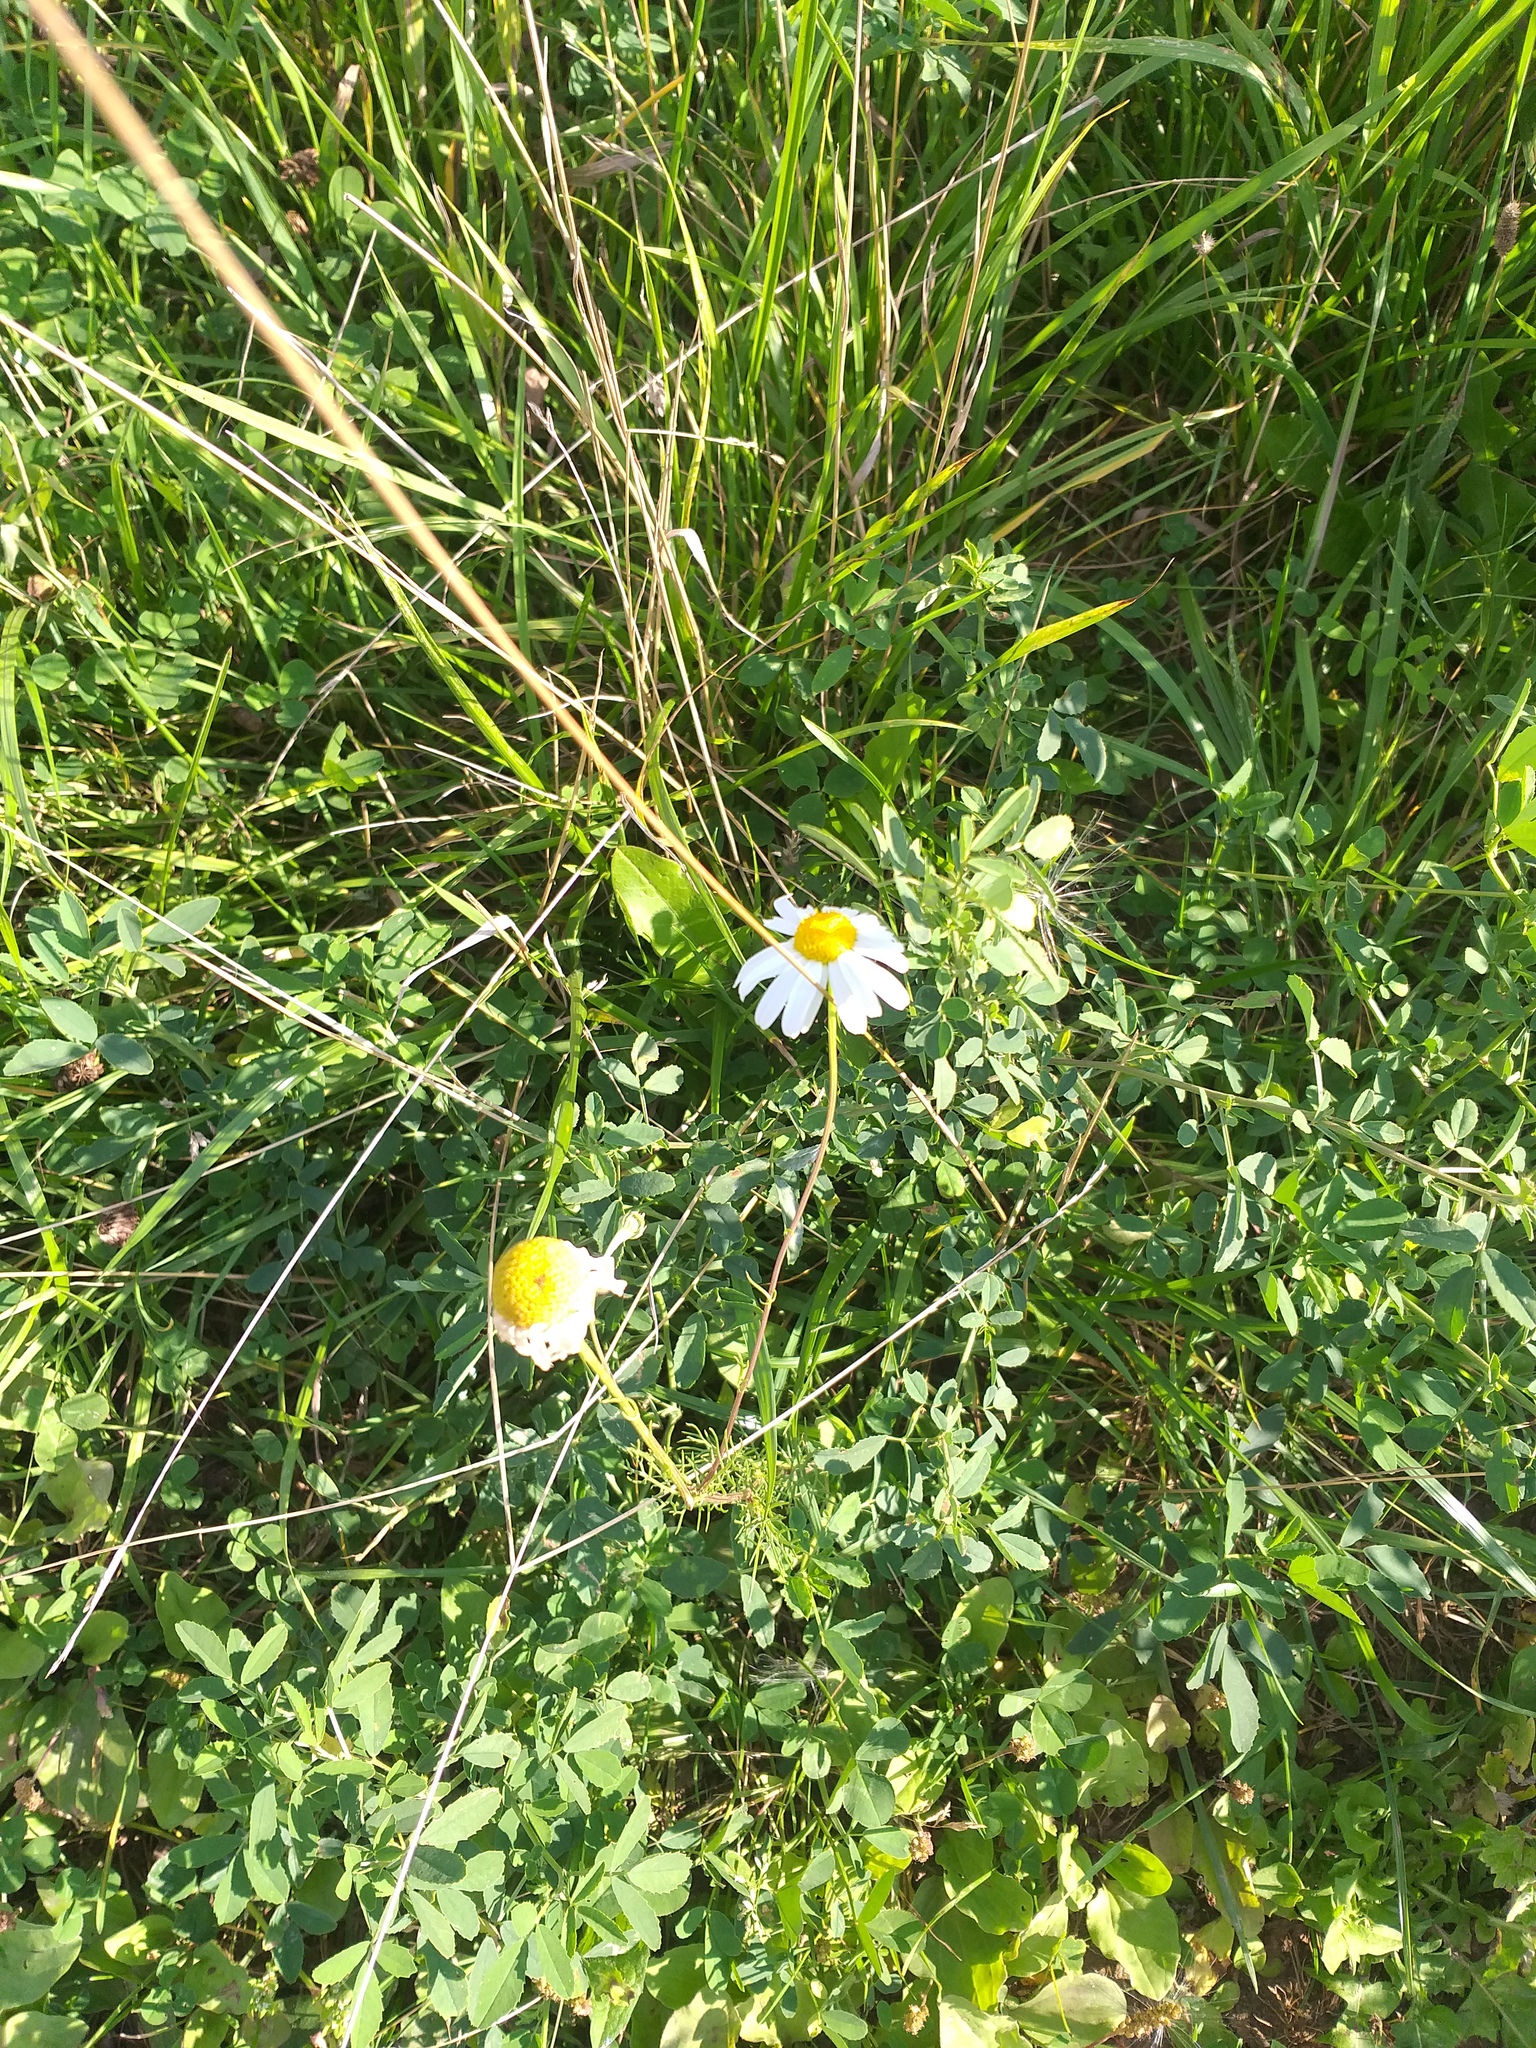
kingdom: Plantae
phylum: Tracheophyta
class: Magnoliopsida
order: Asterales
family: Asteraceae
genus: Tripleurospermum
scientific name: Tripleurospermum inodorum
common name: Scentless mayweed
